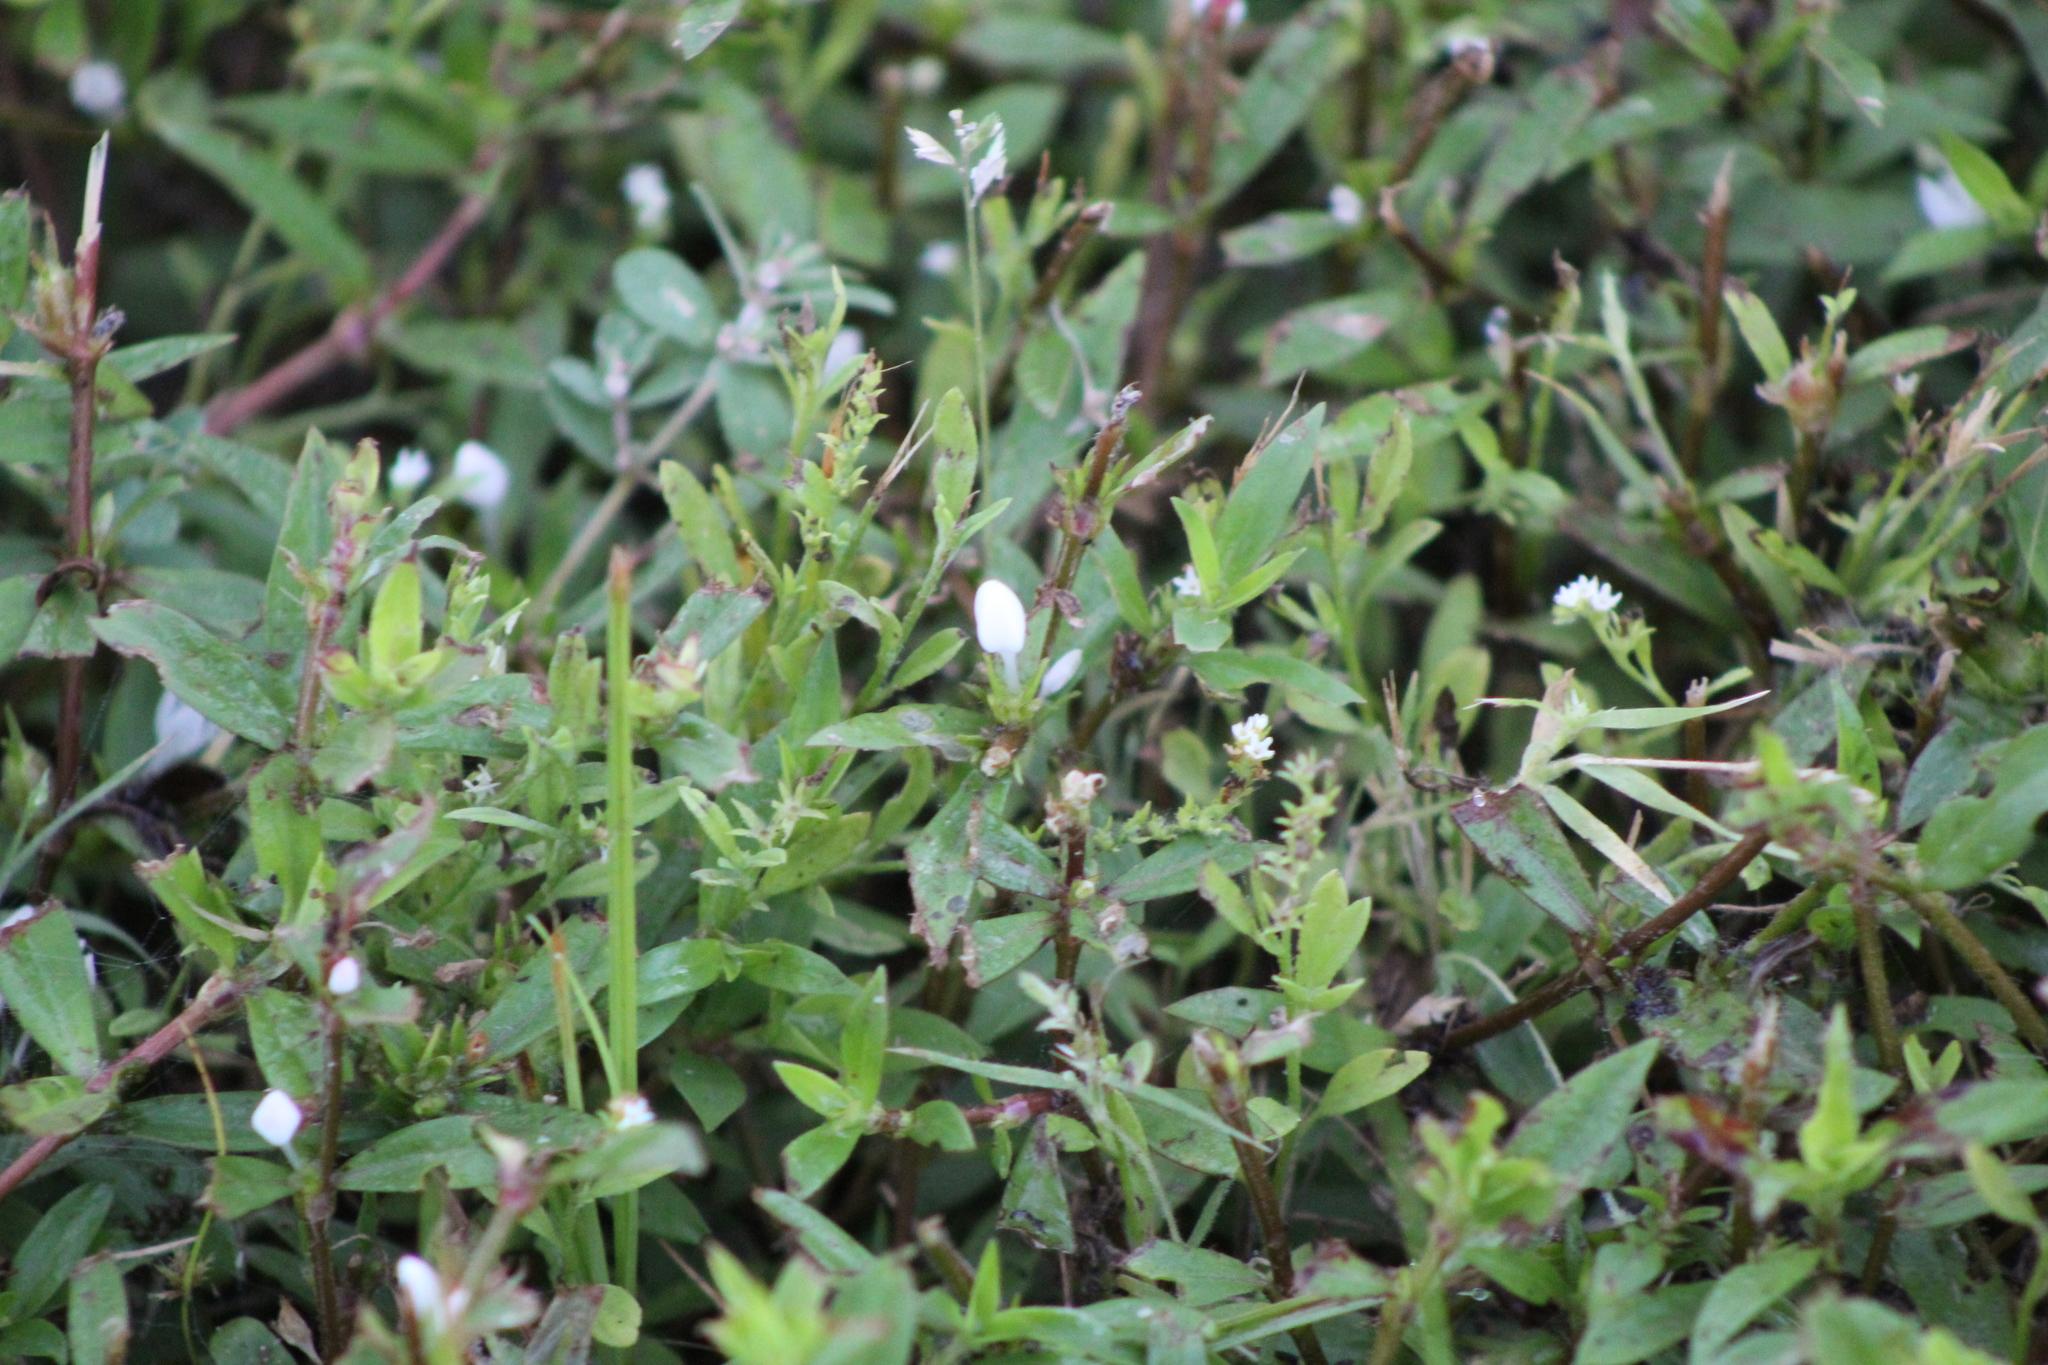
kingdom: Plantae
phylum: Tracheophyta
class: Magnoliopsida
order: Gentianales
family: Rubiaceae
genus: Diodia
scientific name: Diodia virginiana
